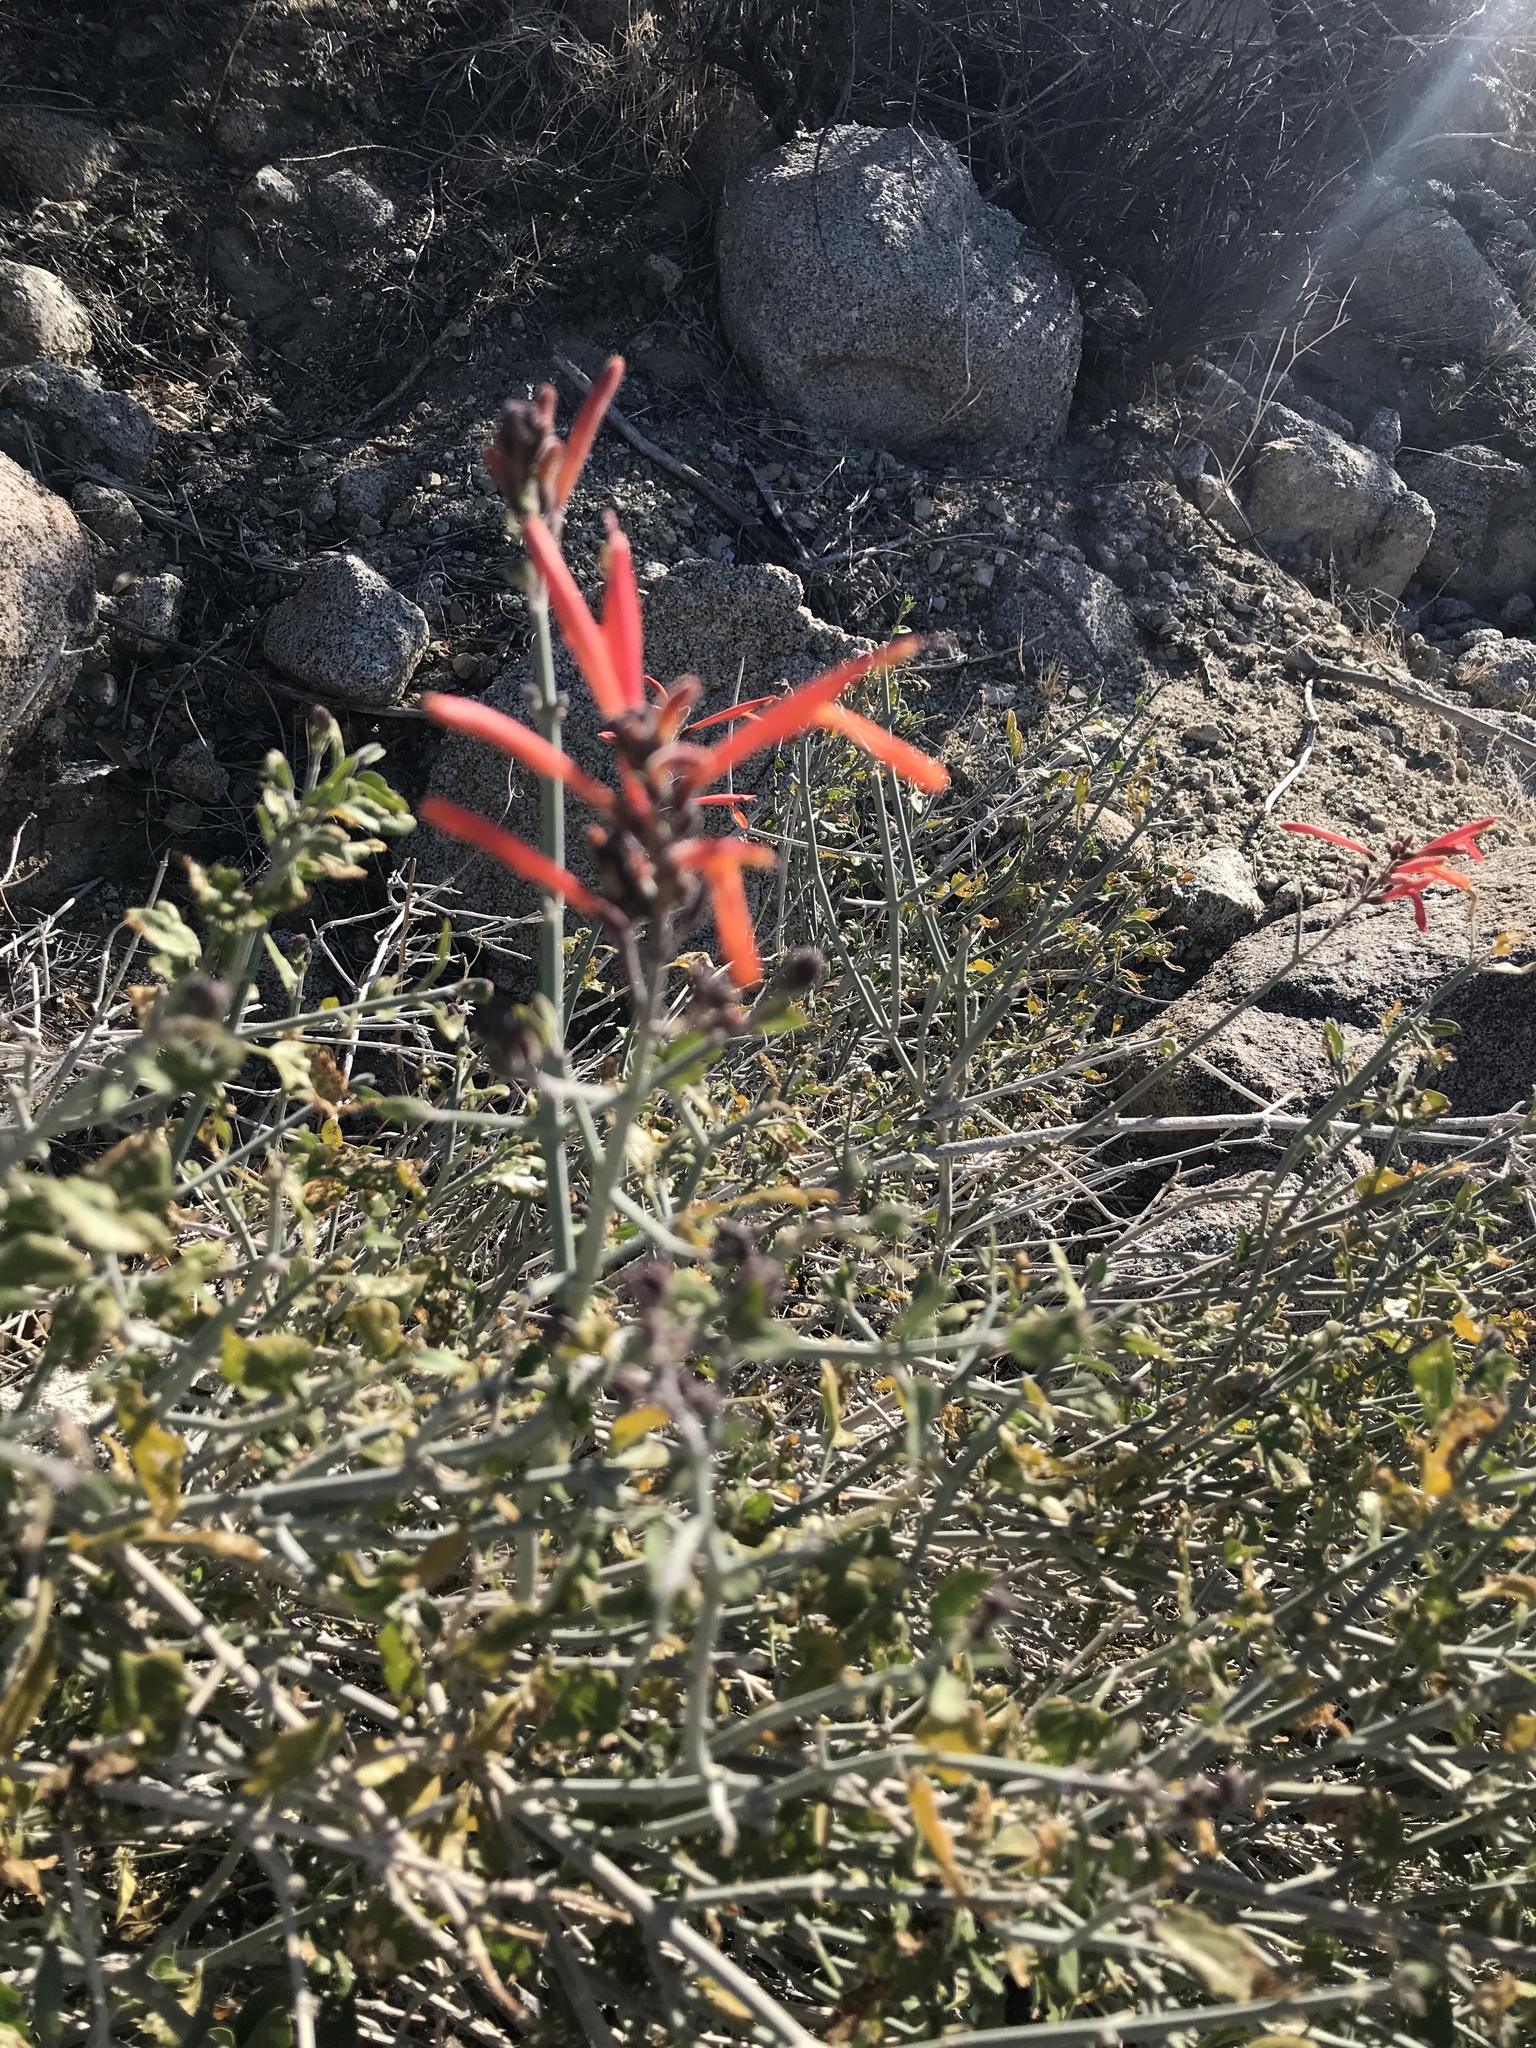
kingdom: Plantae
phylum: Tracheophyta
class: Magnoliopsida
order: Lamiales
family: Acanthaceae
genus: Justicia
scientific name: Justicia californica
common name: Chuparosa-honeysuckle
